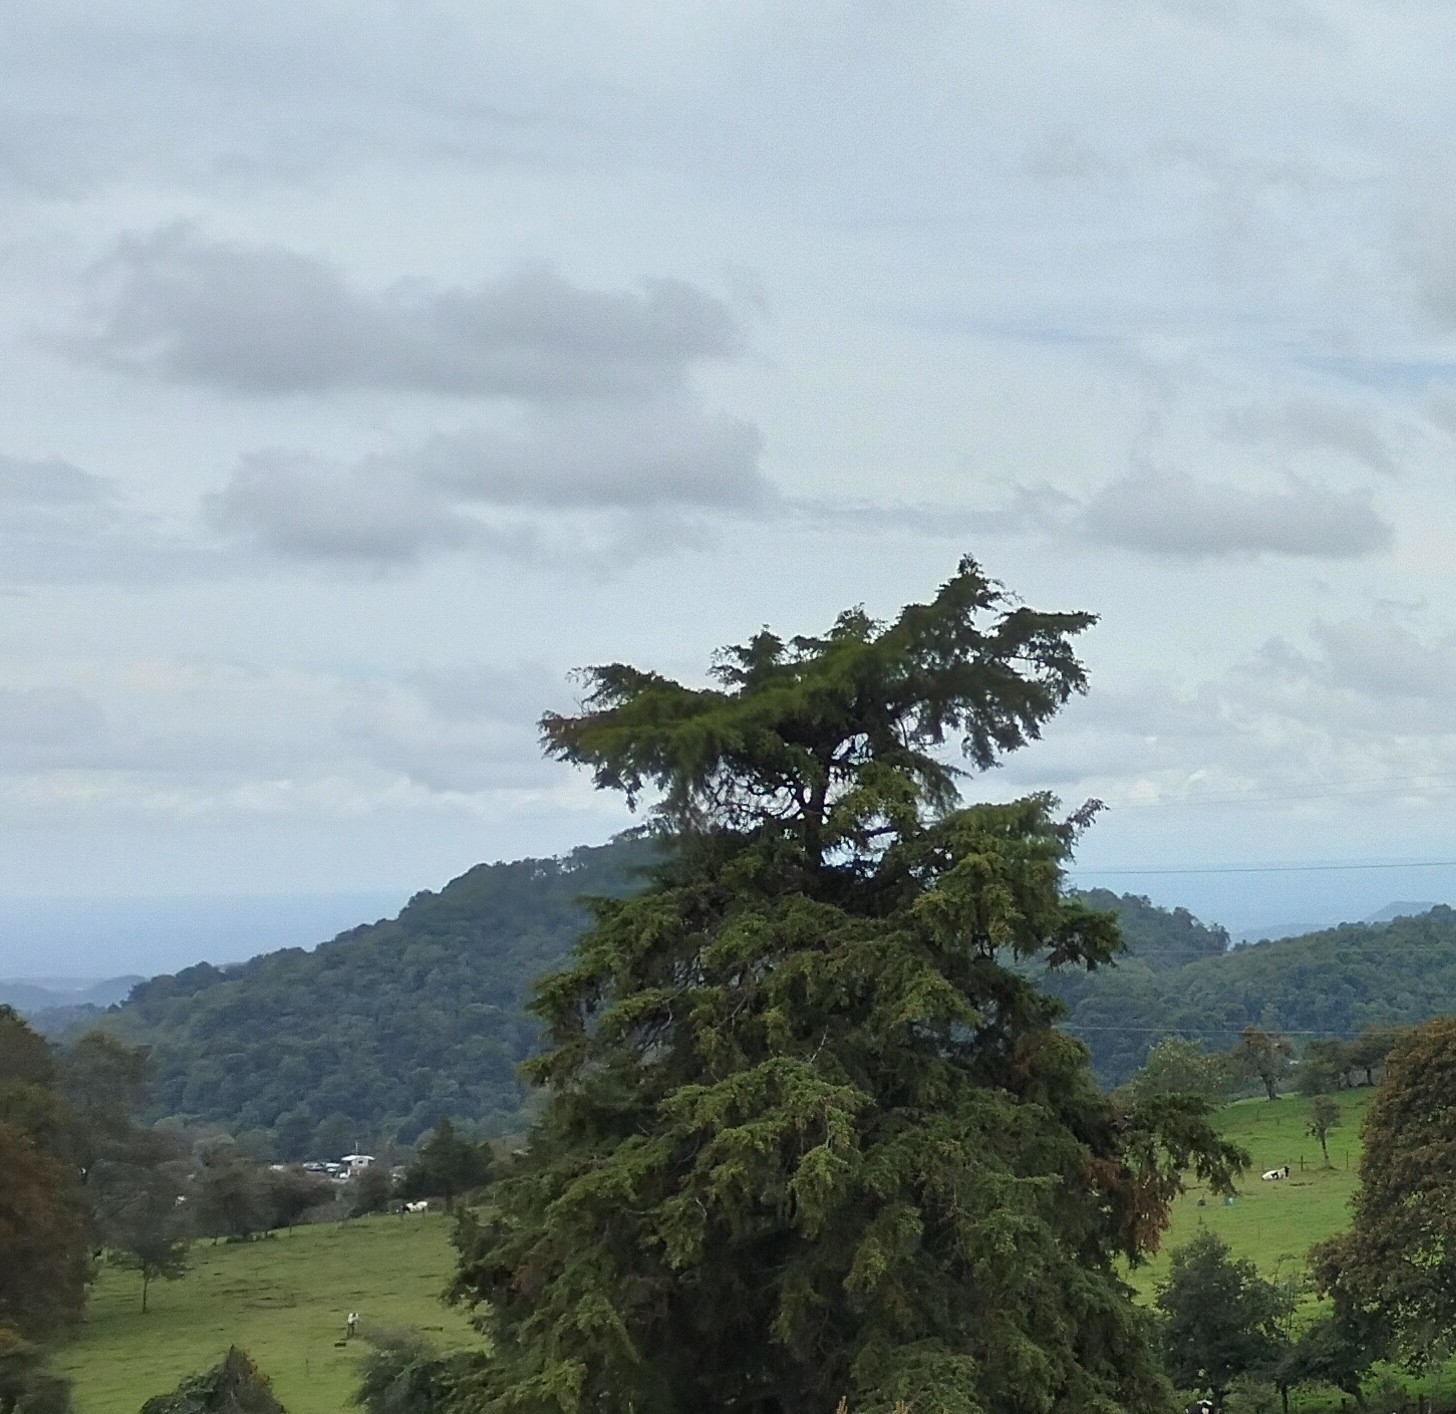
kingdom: Plantae
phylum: Tracheophyta
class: Pinopsida
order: Pinales
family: Cupressaceae
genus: Cupressus
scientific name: Cupressus lusitanica
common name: Mexican cypress
